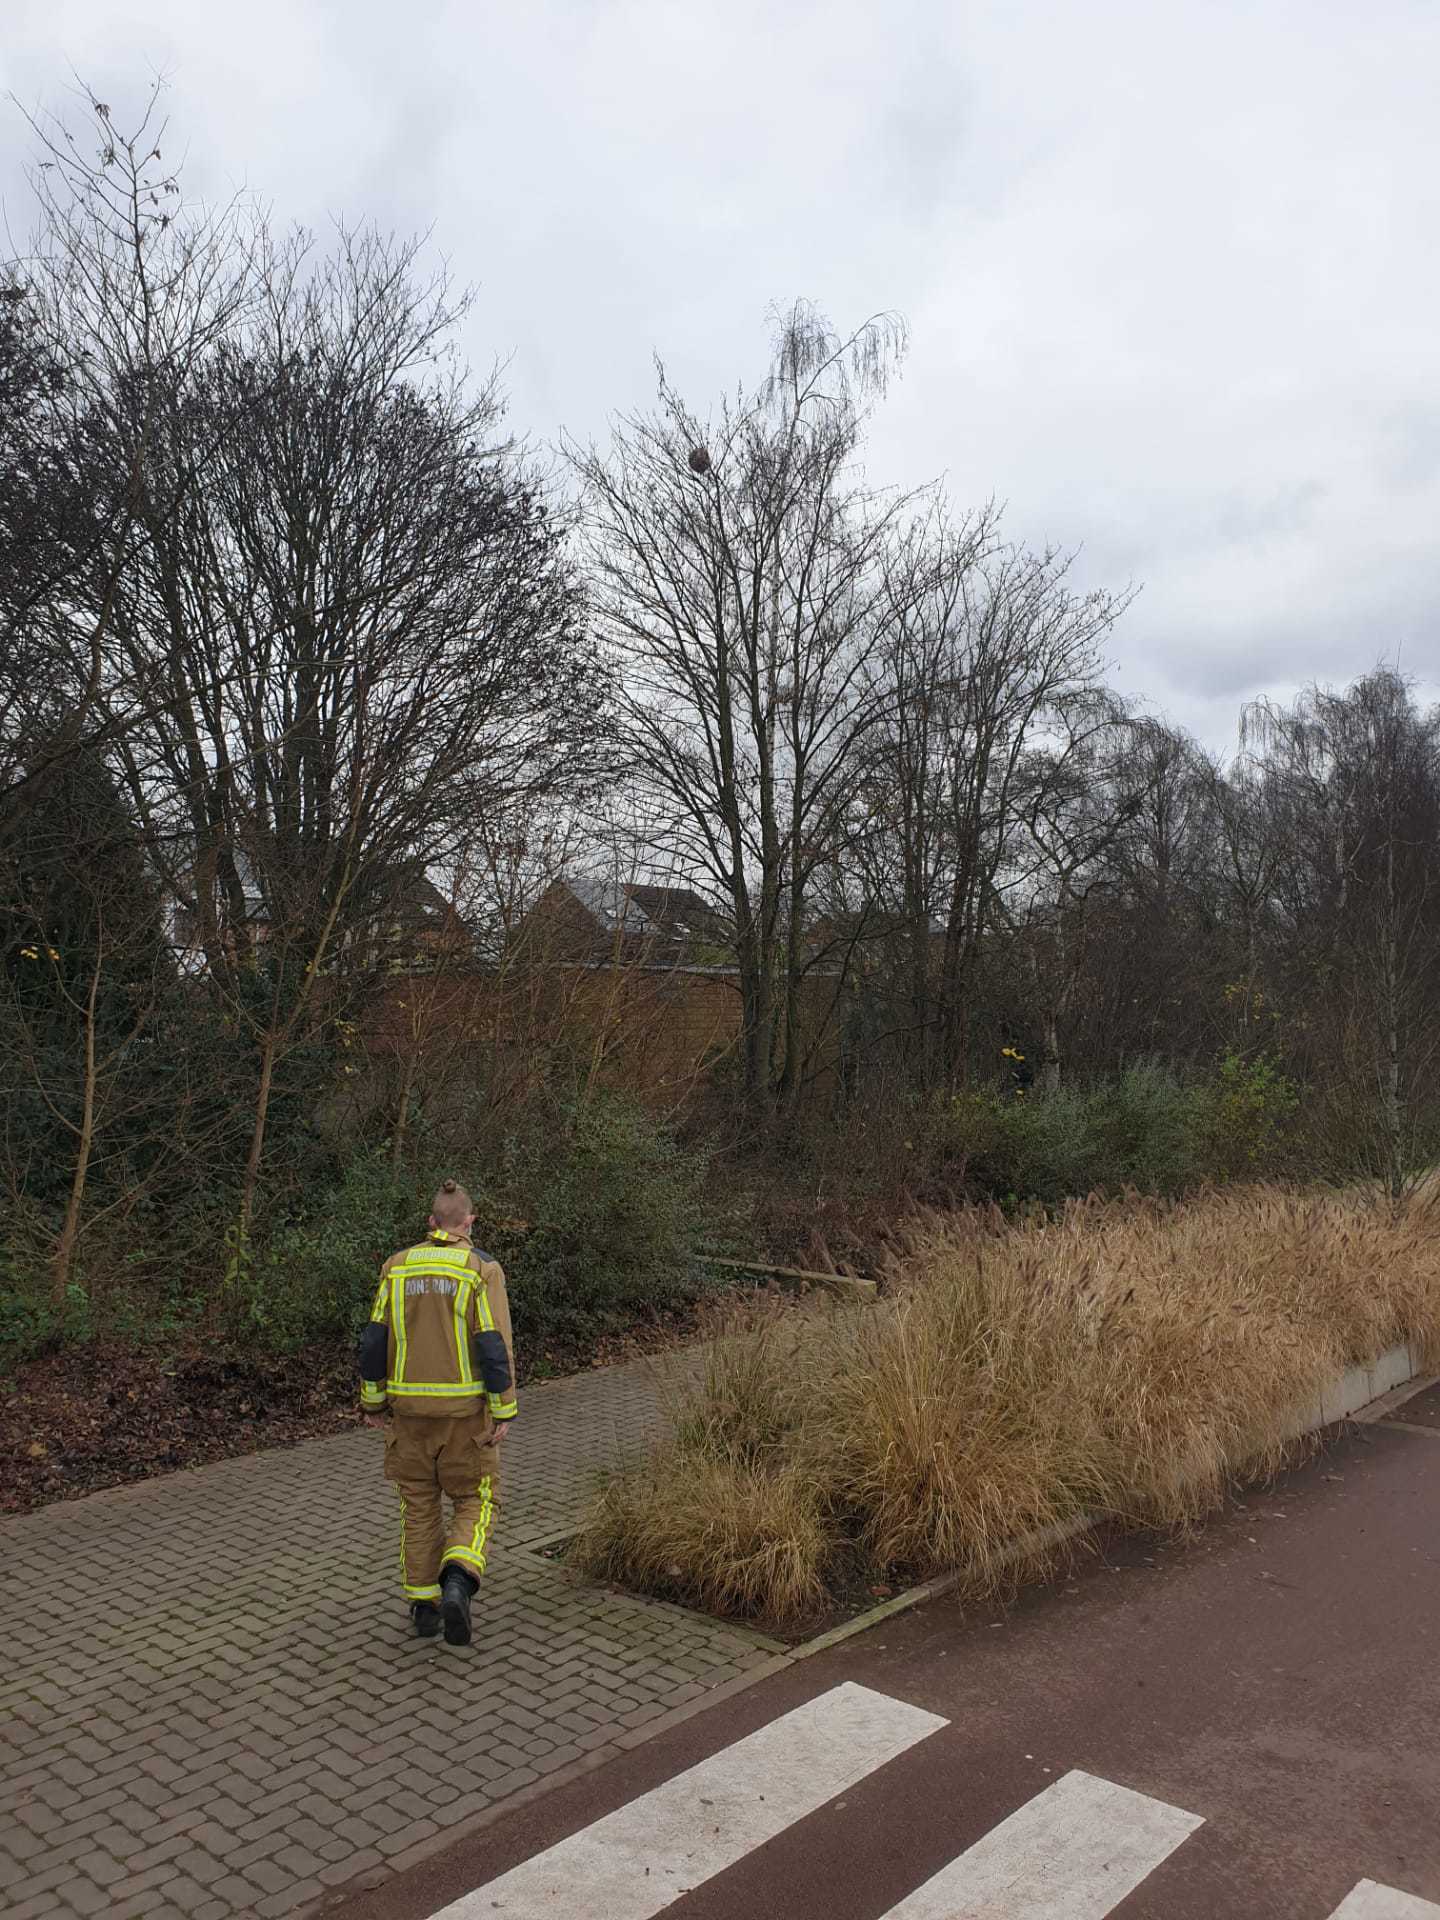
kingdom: Animalia
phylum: Arthropoda
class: Insecta
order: Hymenoptera
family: Vespidae
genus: Vespa
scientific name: Vespa velutina
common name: Asian hornet
